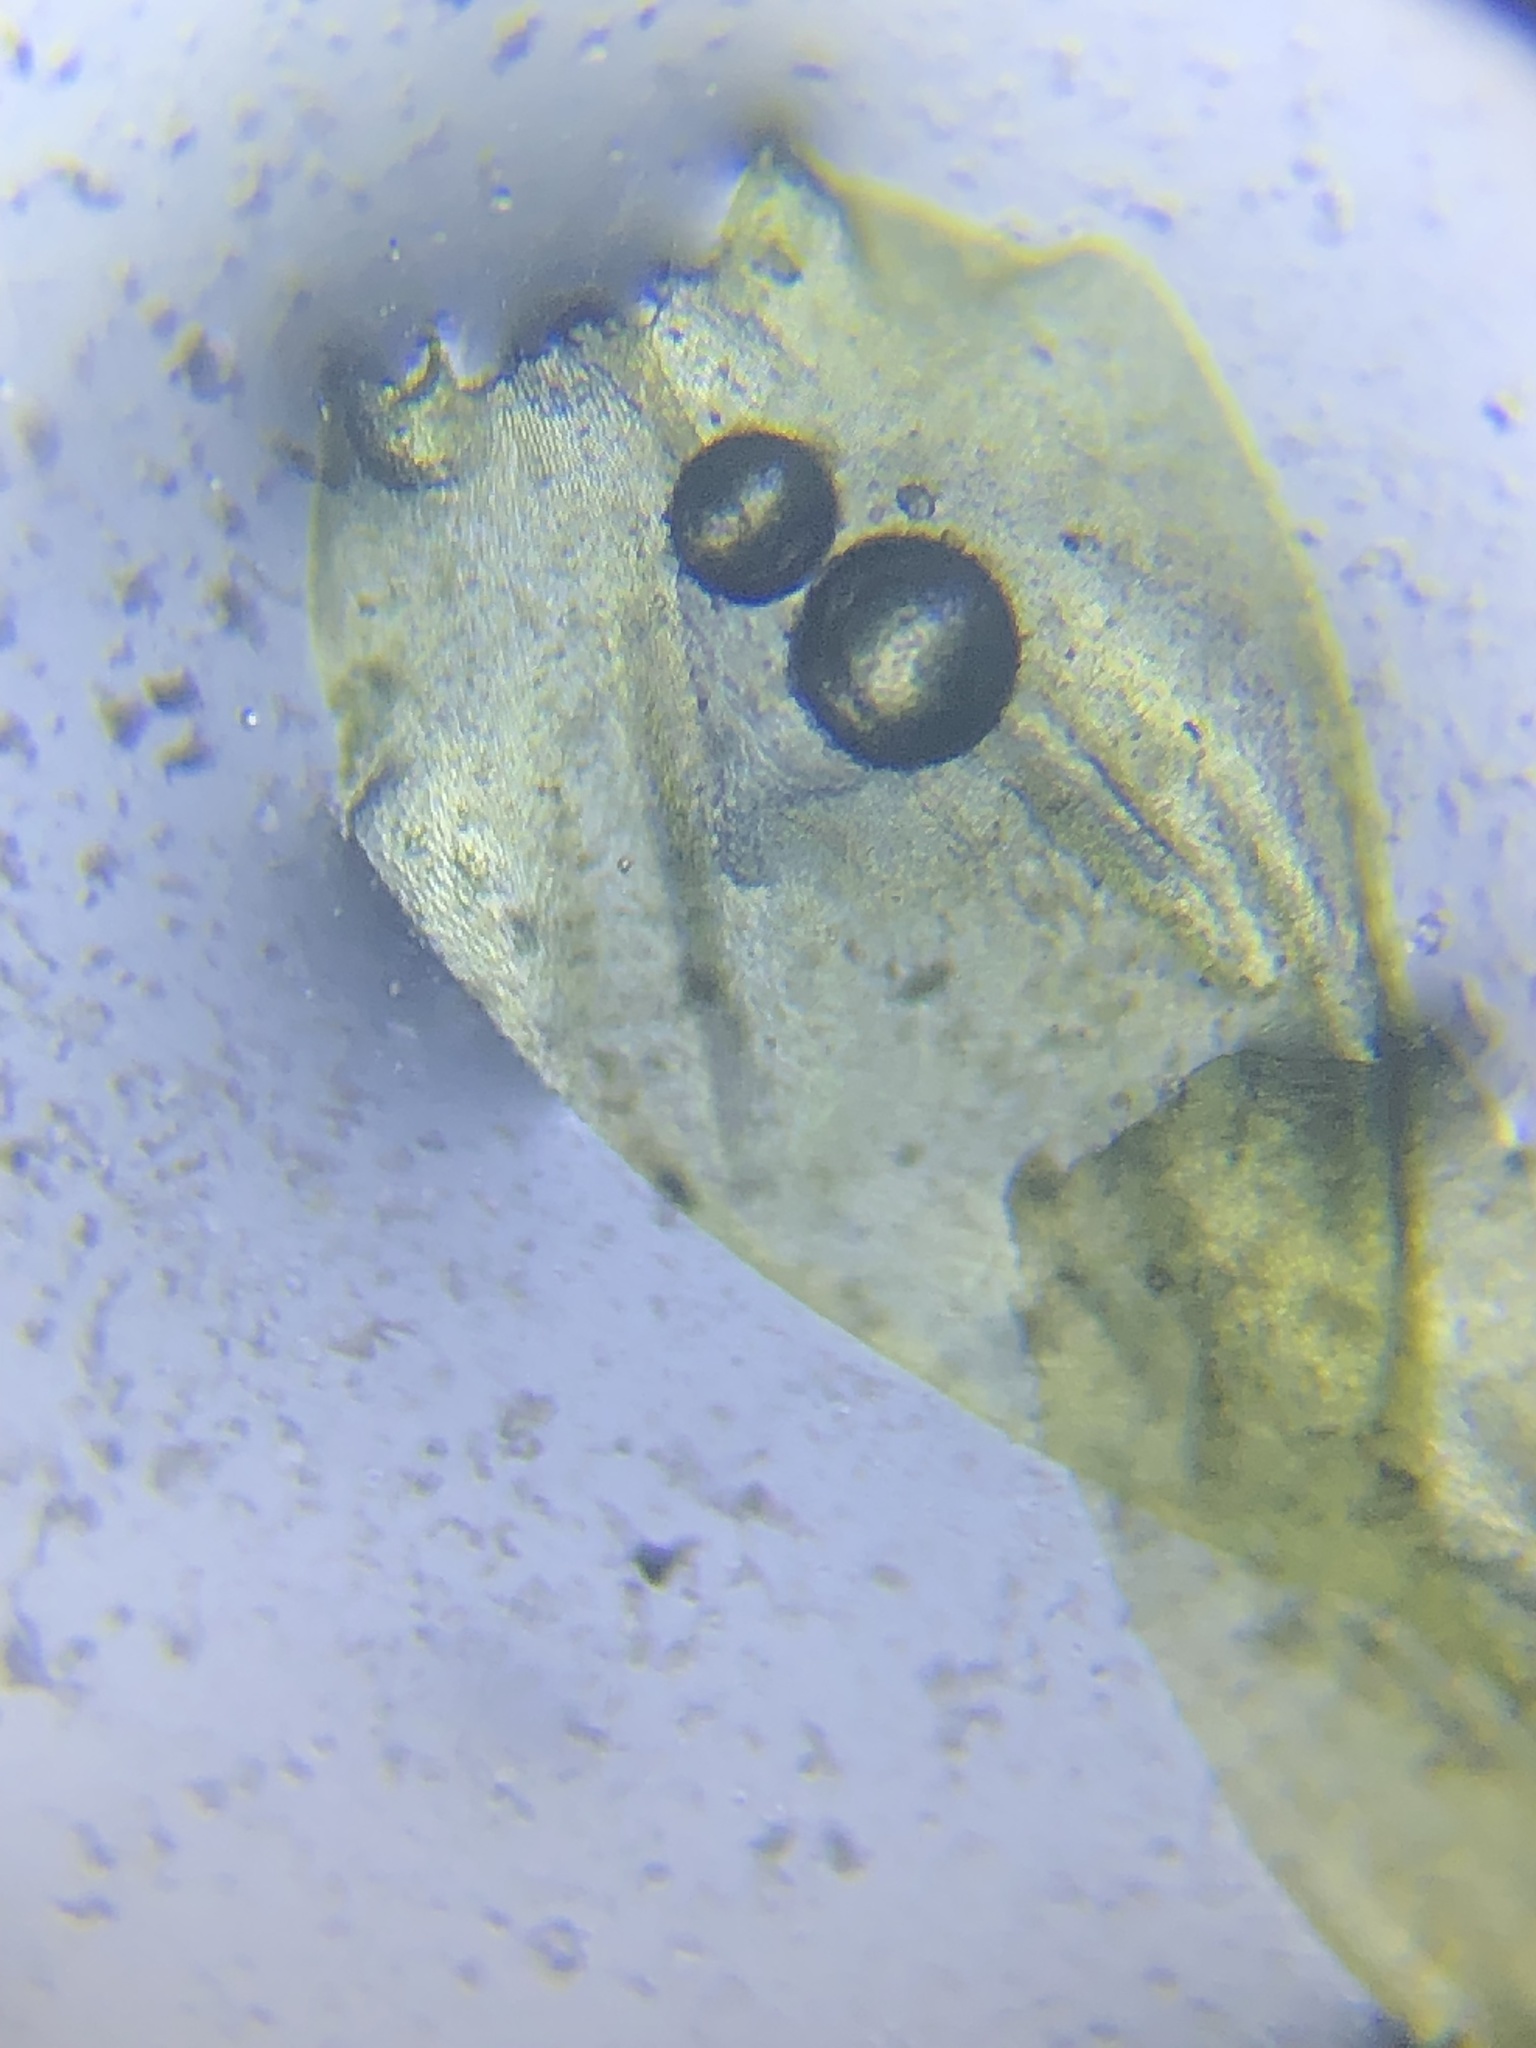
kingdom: Plantae
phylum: Bryophyta
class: Bryopsida
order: Hypnales
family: Brachytheciaceae
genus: Bryoandersonia
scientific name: Bryoandersonia illecebra
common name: Spoon-leaved moss
